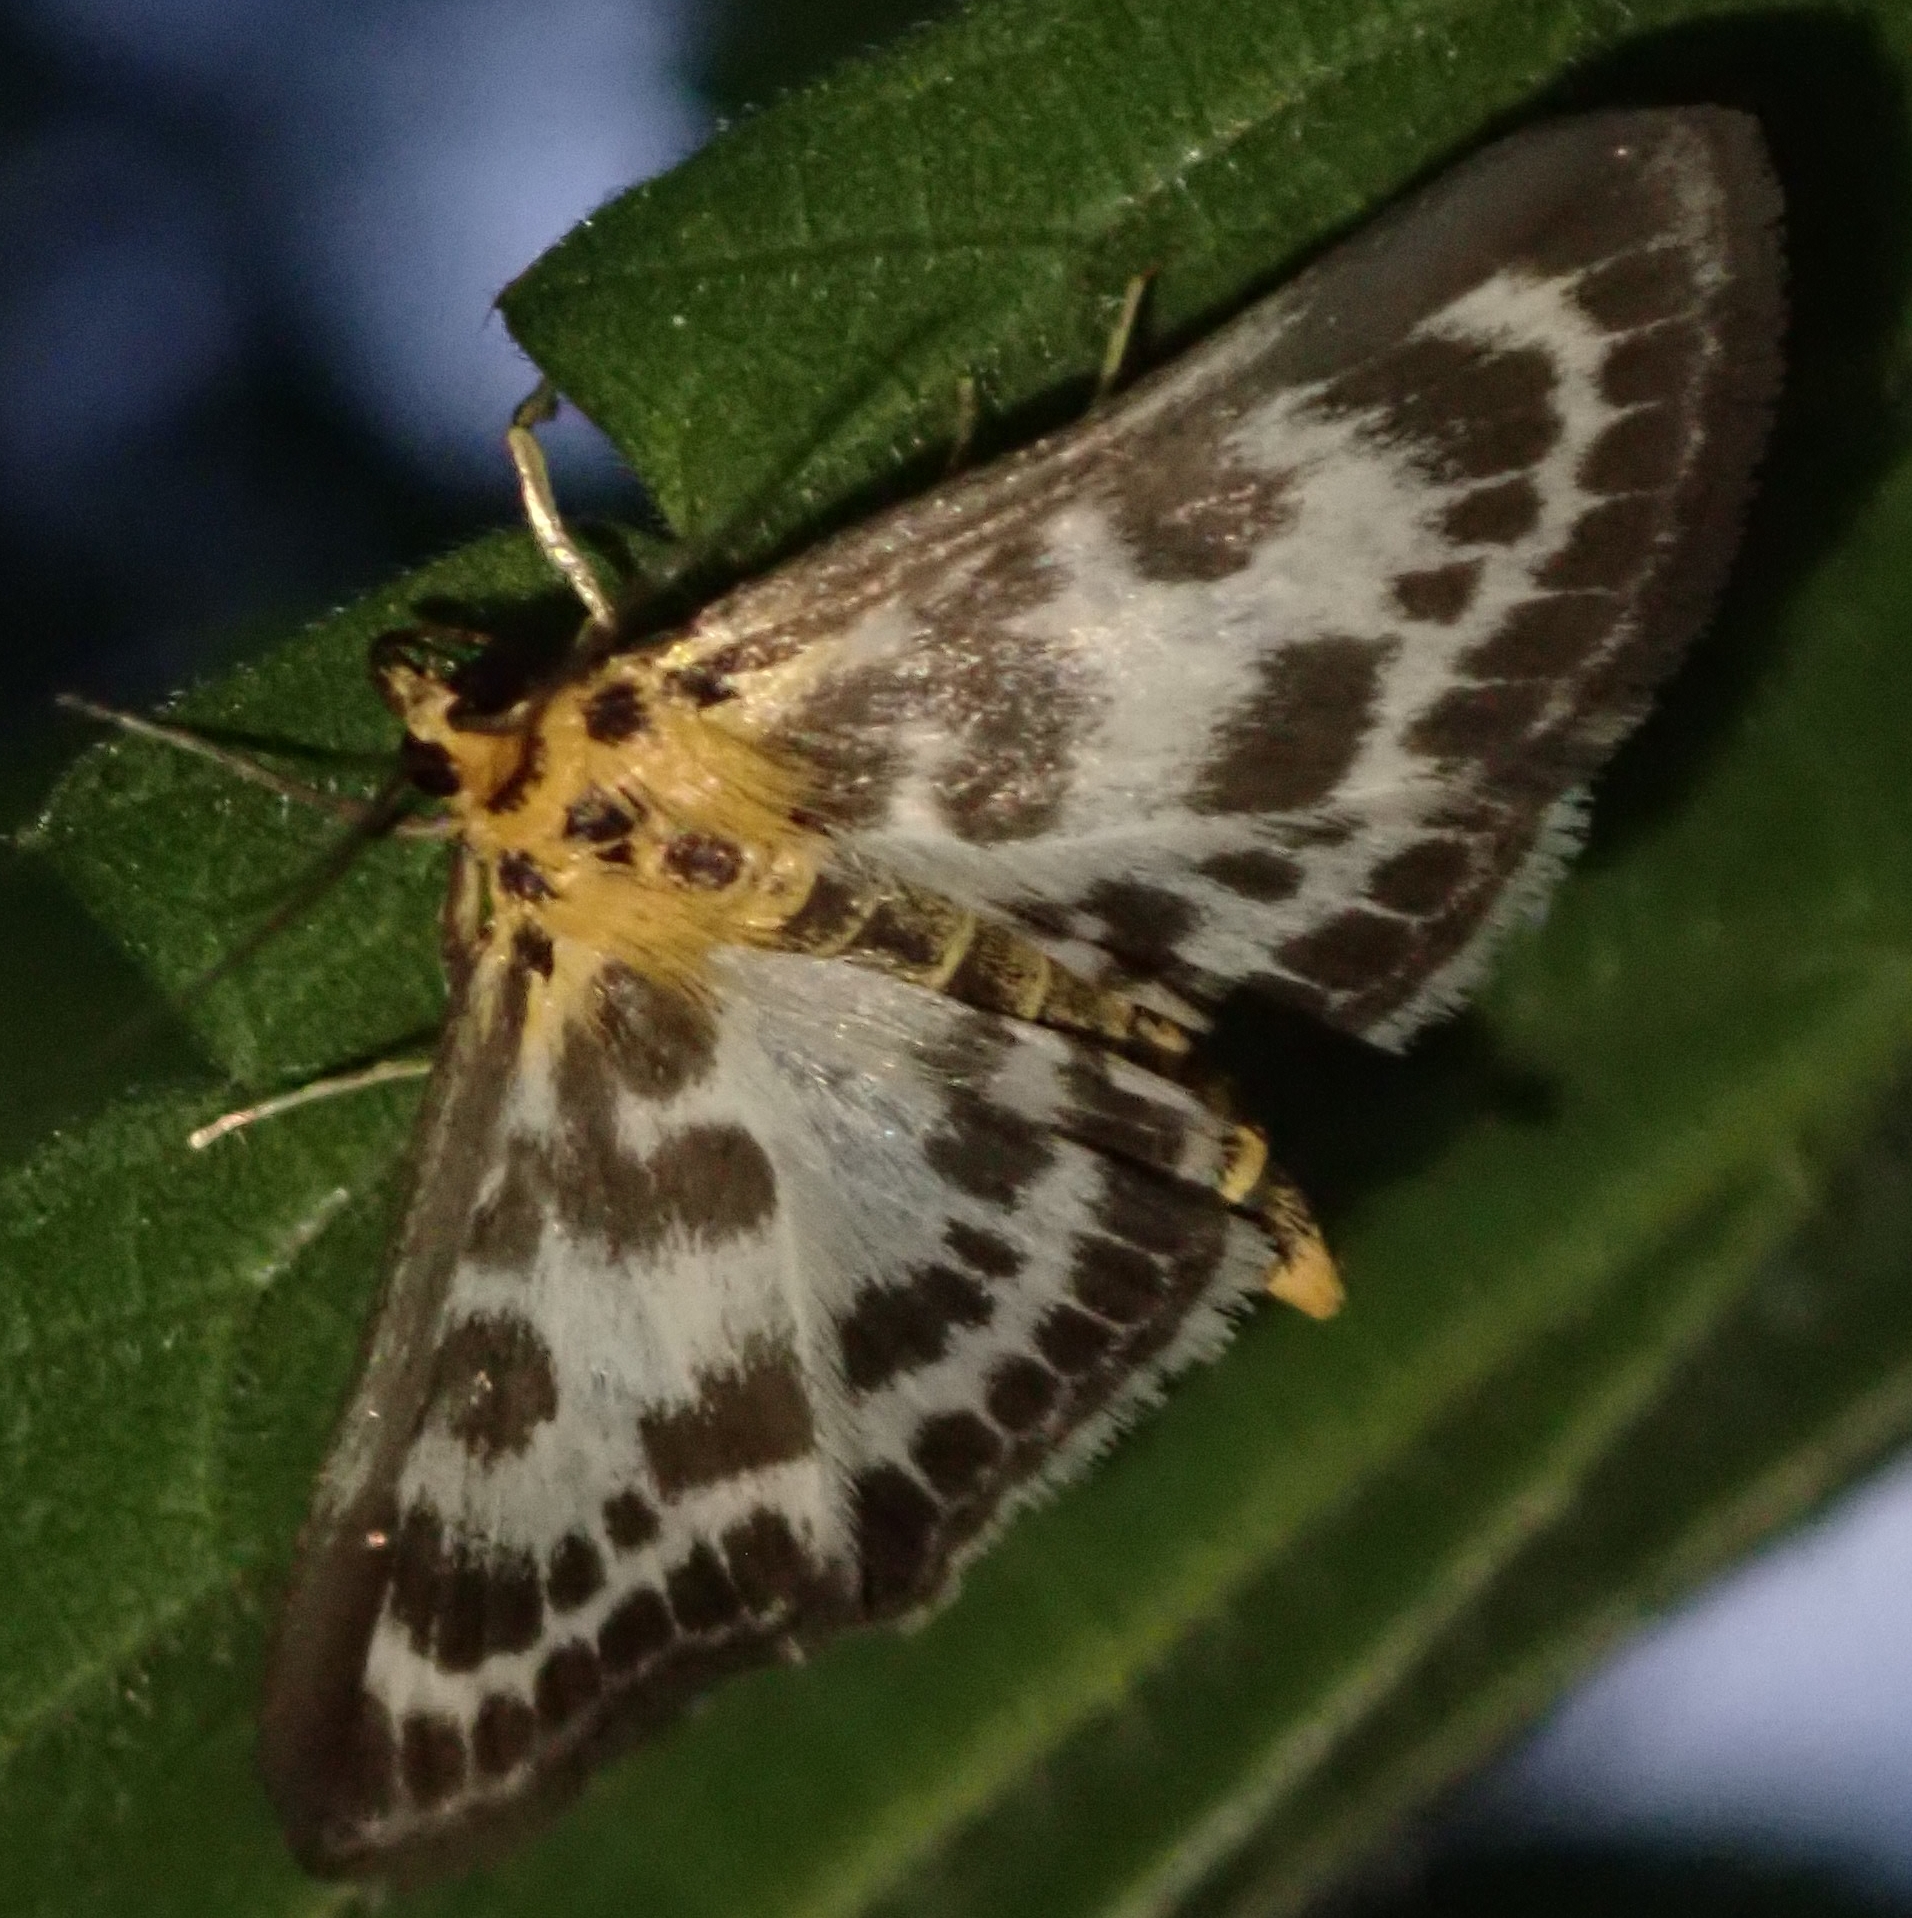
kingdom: Animalia
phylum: Arthropoda
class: Insecta
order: Lepidoptera
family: Crambidae
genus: Anania
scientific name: Anania hortulata
